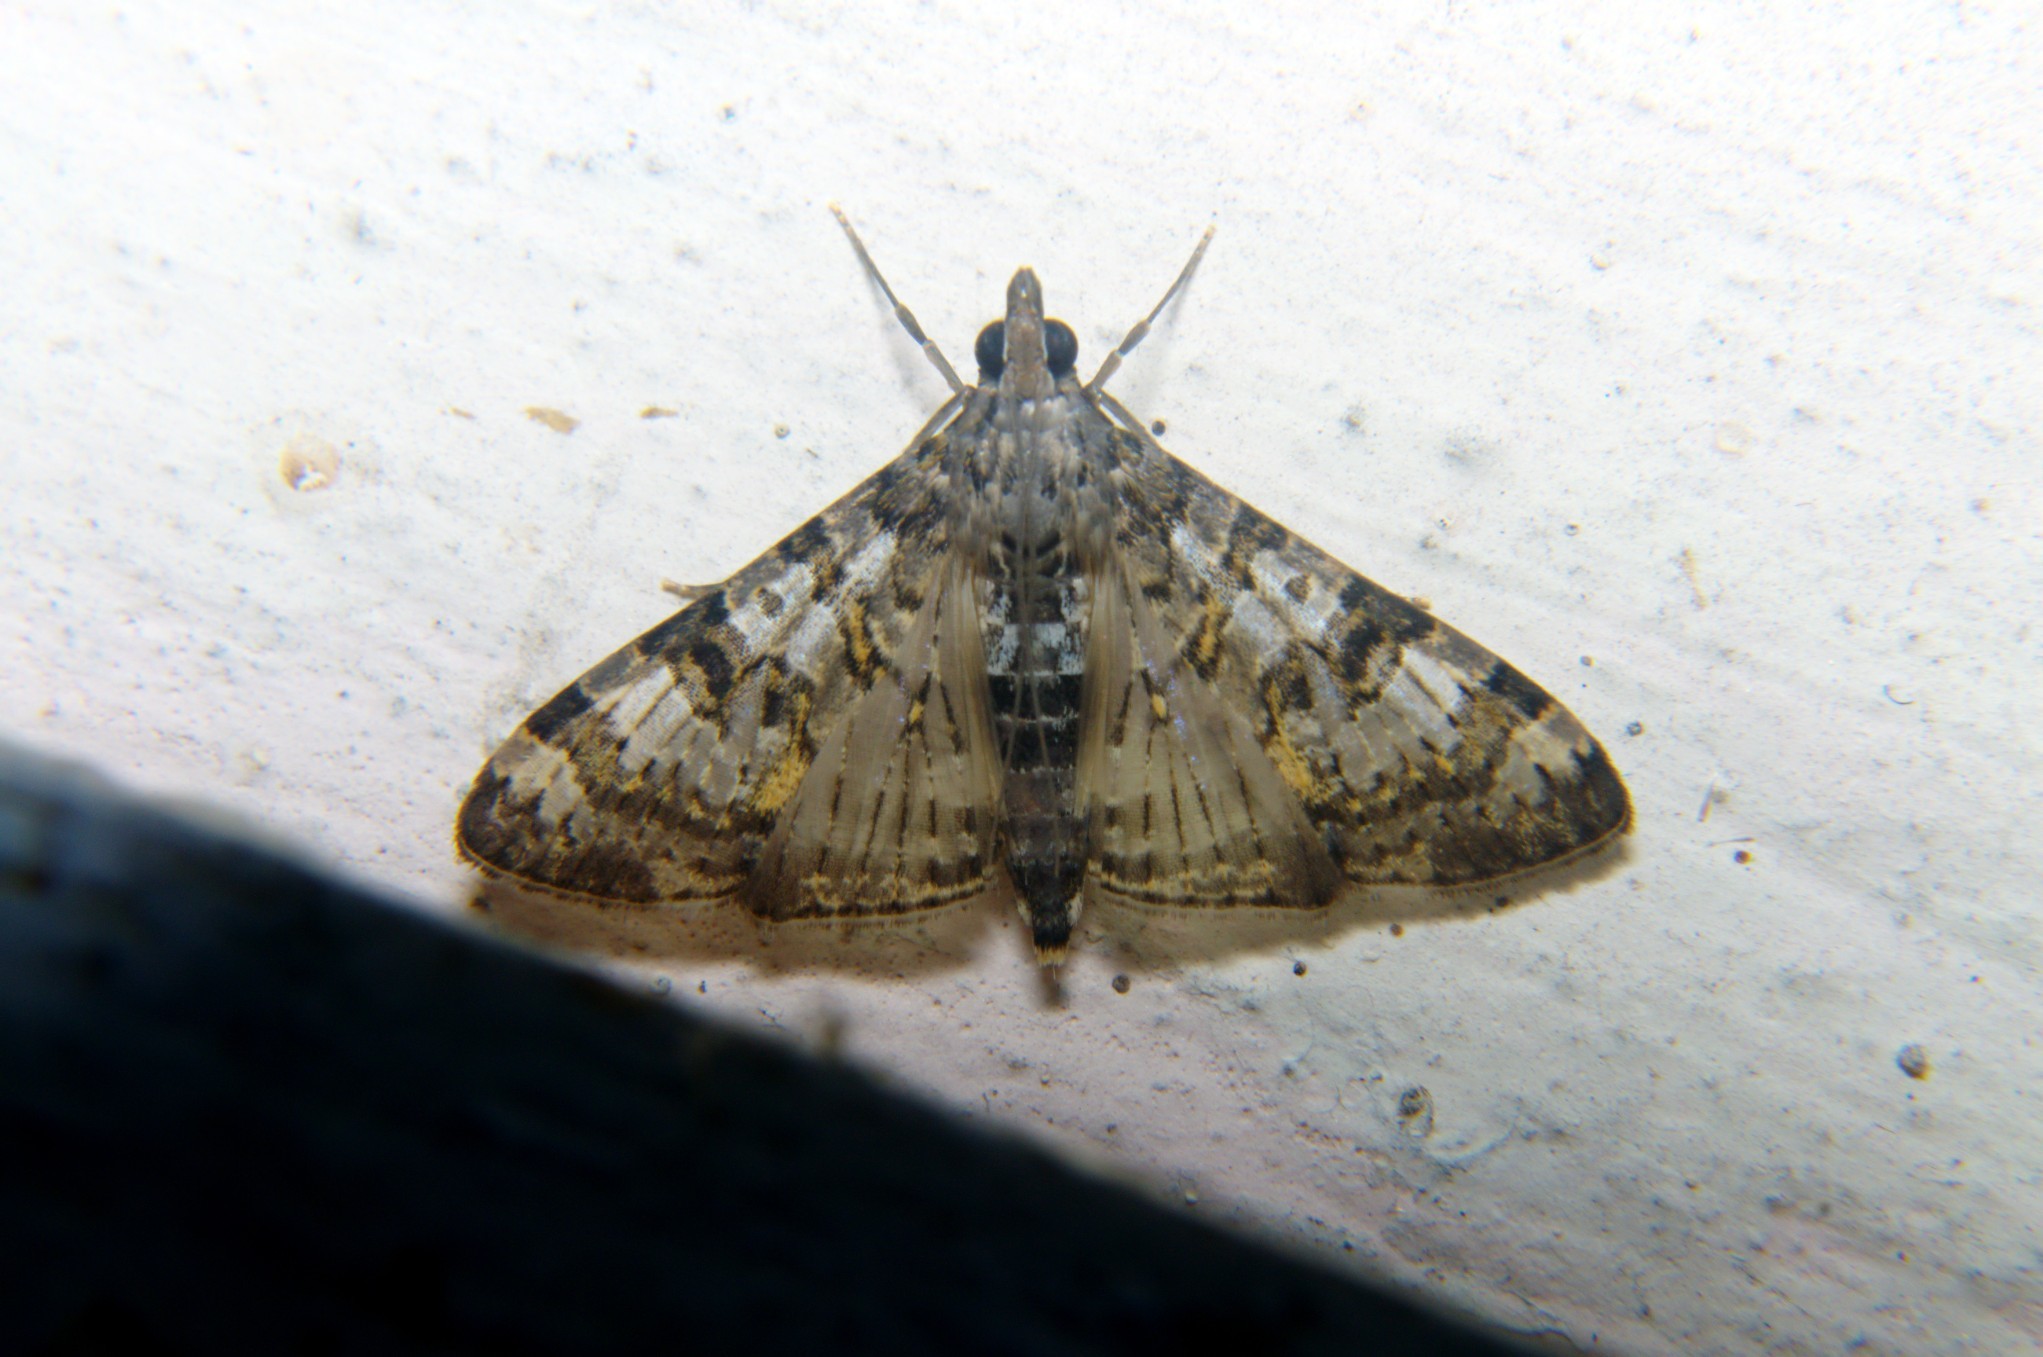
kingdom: Animalia
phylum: Arthropoda
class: Insecta
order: Lepidoptera
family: Crambidae
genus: Dysallacta
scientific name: Dysallacta negatalis
